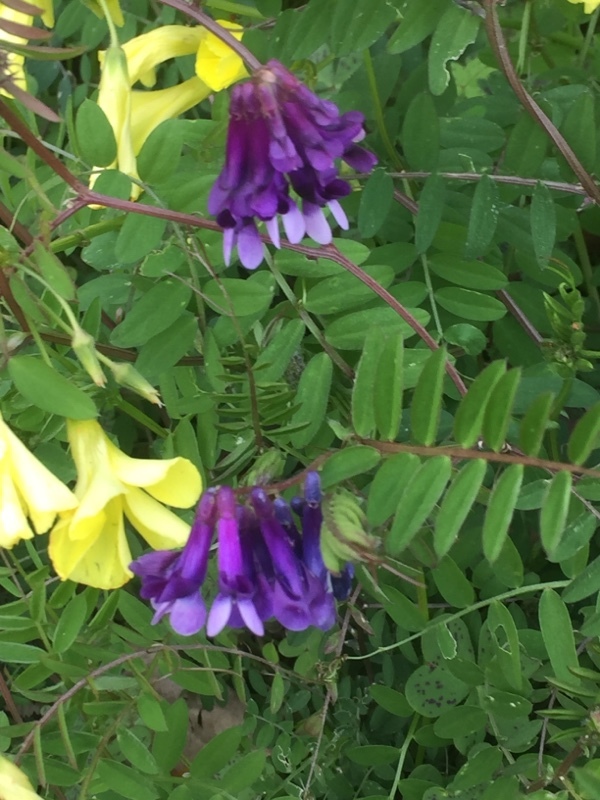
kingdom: Plantae
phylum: Tracheophyta
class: Magnoliopsida
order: Fabales
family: Fabaceae
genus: Vicia
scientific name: Vicia villosa
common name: Fodder vetch
